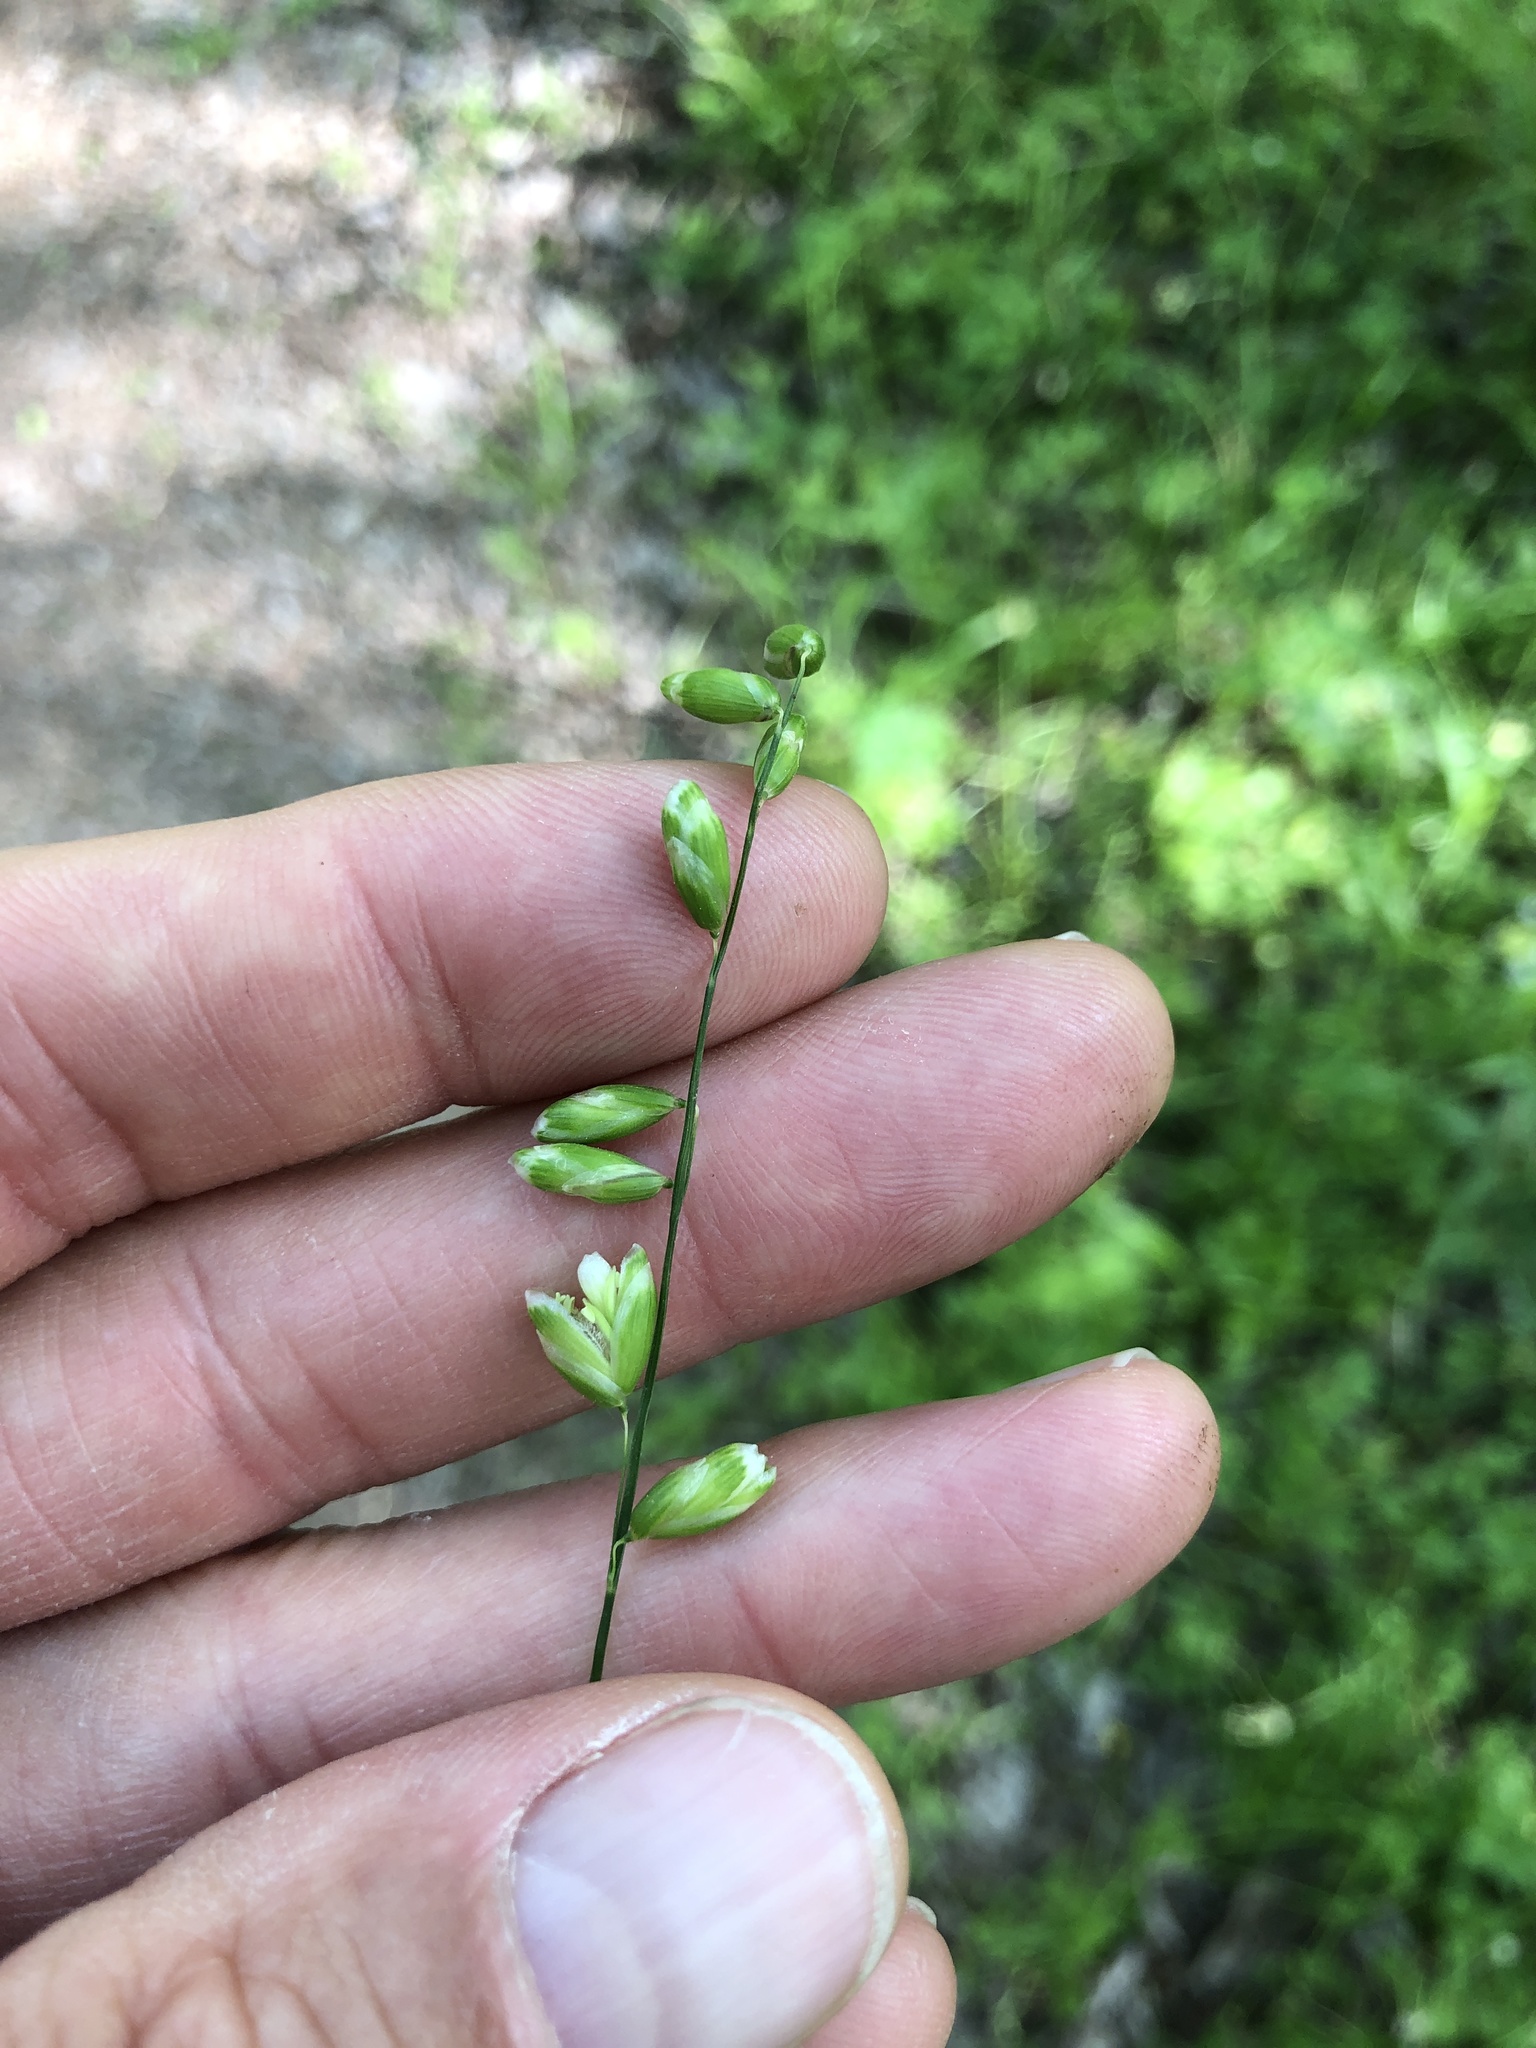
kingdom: Plantae
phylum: Tracheophyta
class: Liliopsida
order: Poales
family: Poaceae
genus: Melica
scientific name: Melica mutica
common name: Two-flower melic
